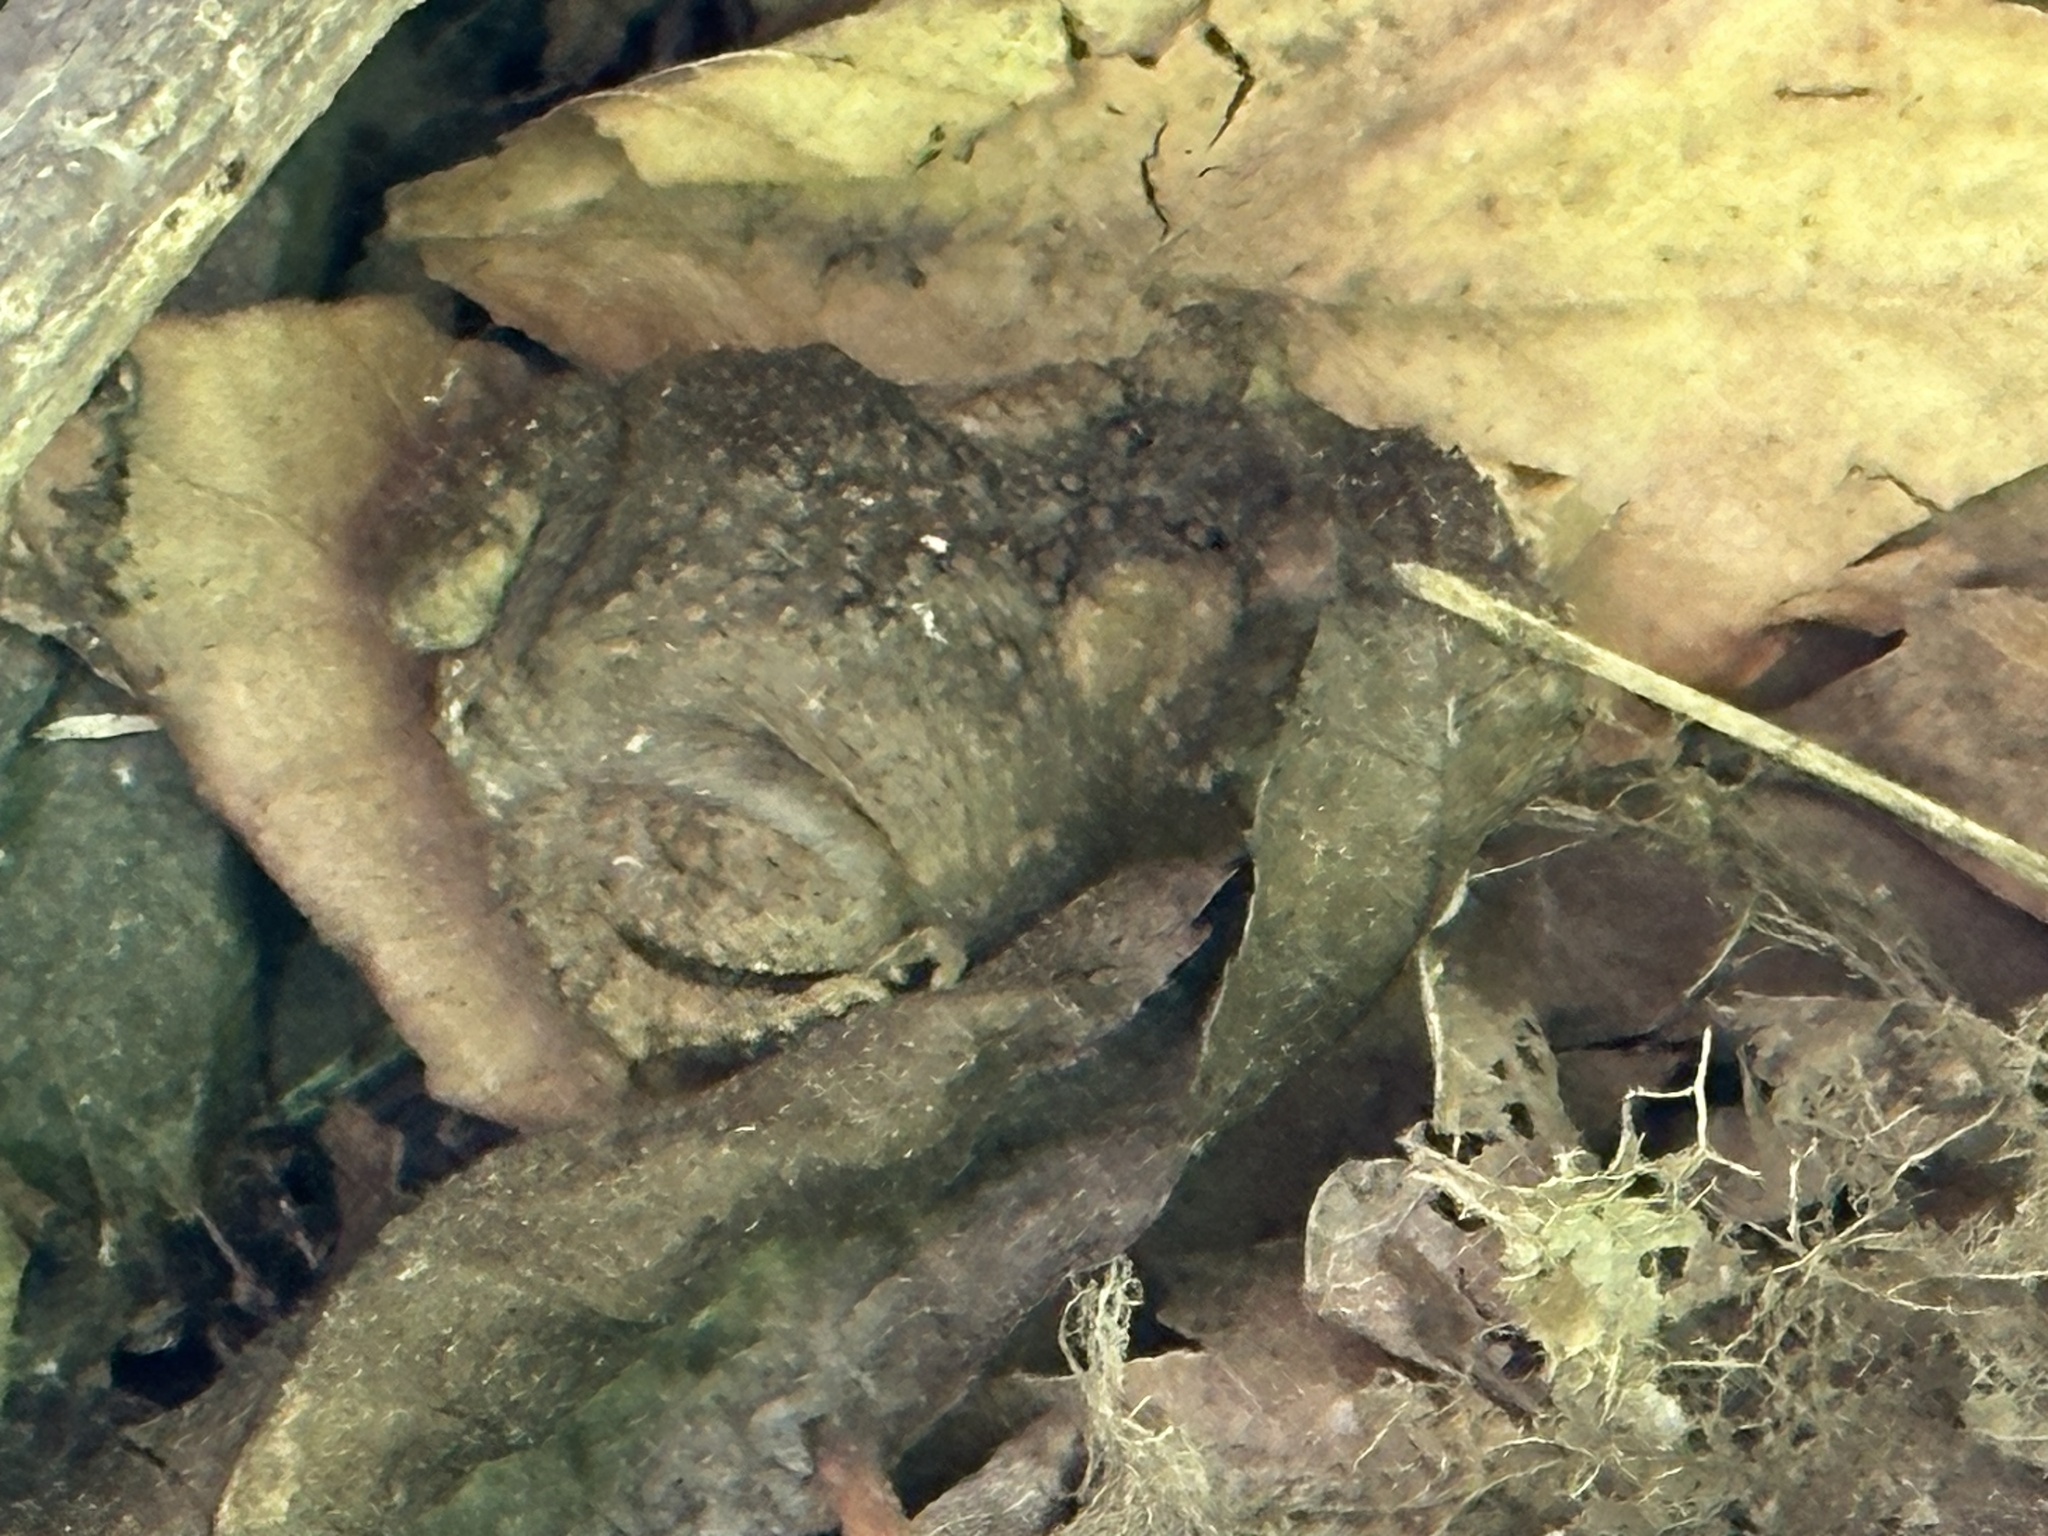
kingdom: Animalia
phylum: Chordata
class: Amphibia
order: Anura
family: Bufonidae
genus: Anaxyrus
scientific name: Anaxyrus americanus
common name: American toad
